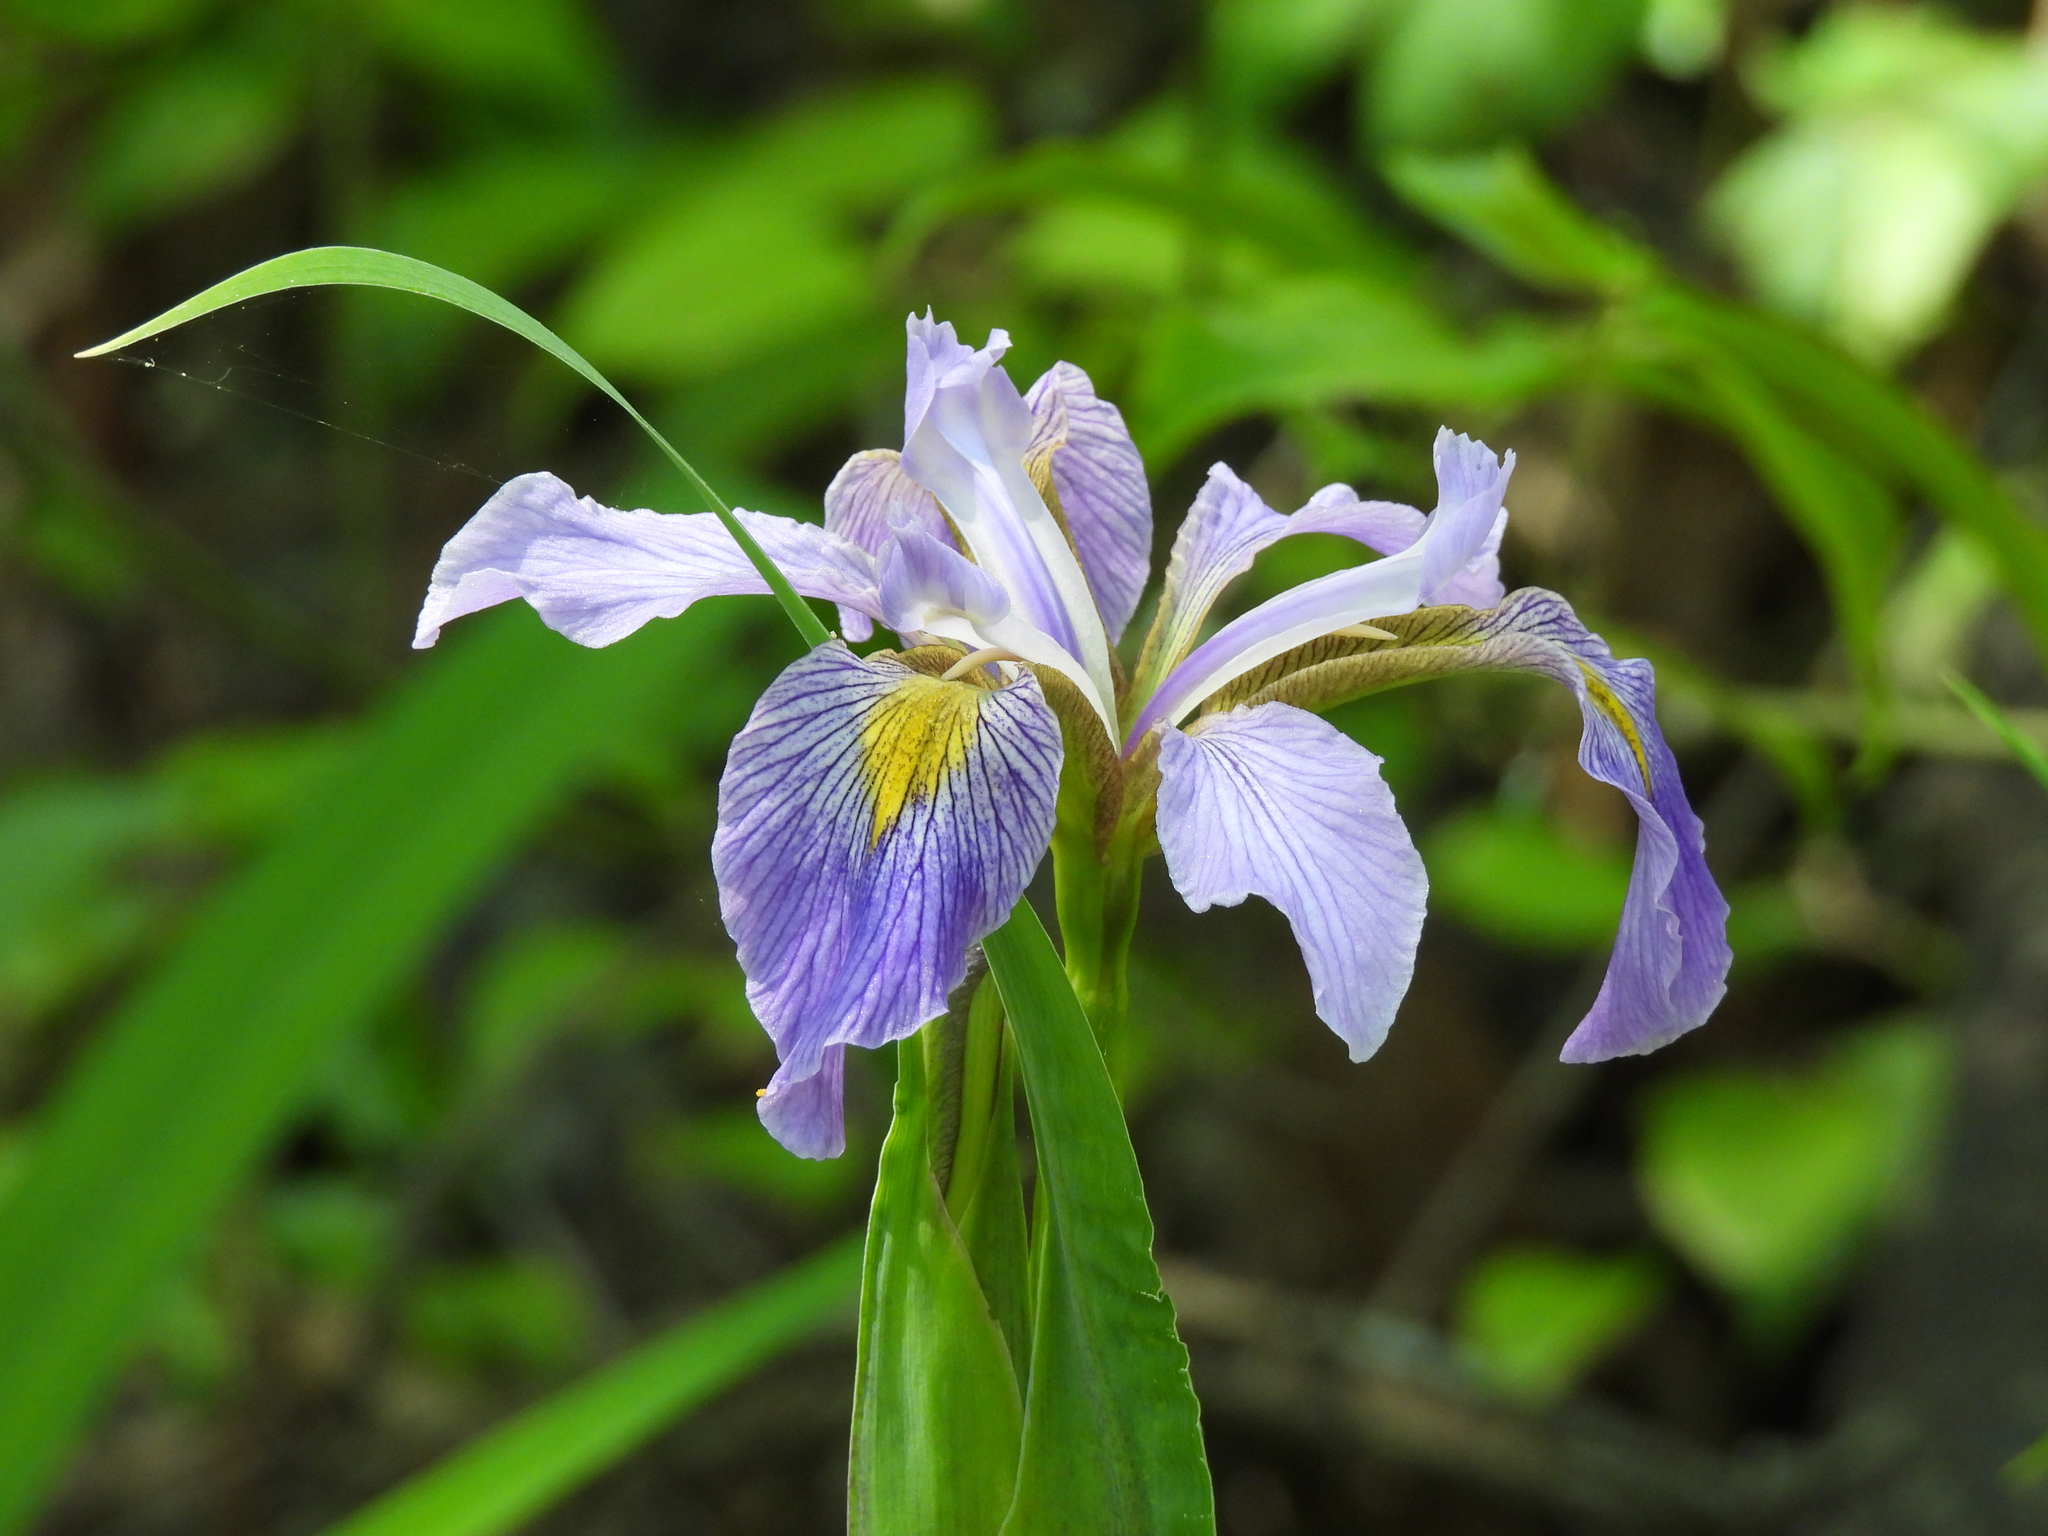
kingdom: Plantae
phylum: Tracheophyta
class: Liliopsida
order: Asparagales
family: Iridaceae
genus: Iris
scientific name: Iris virginica
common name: Southern blue flag
